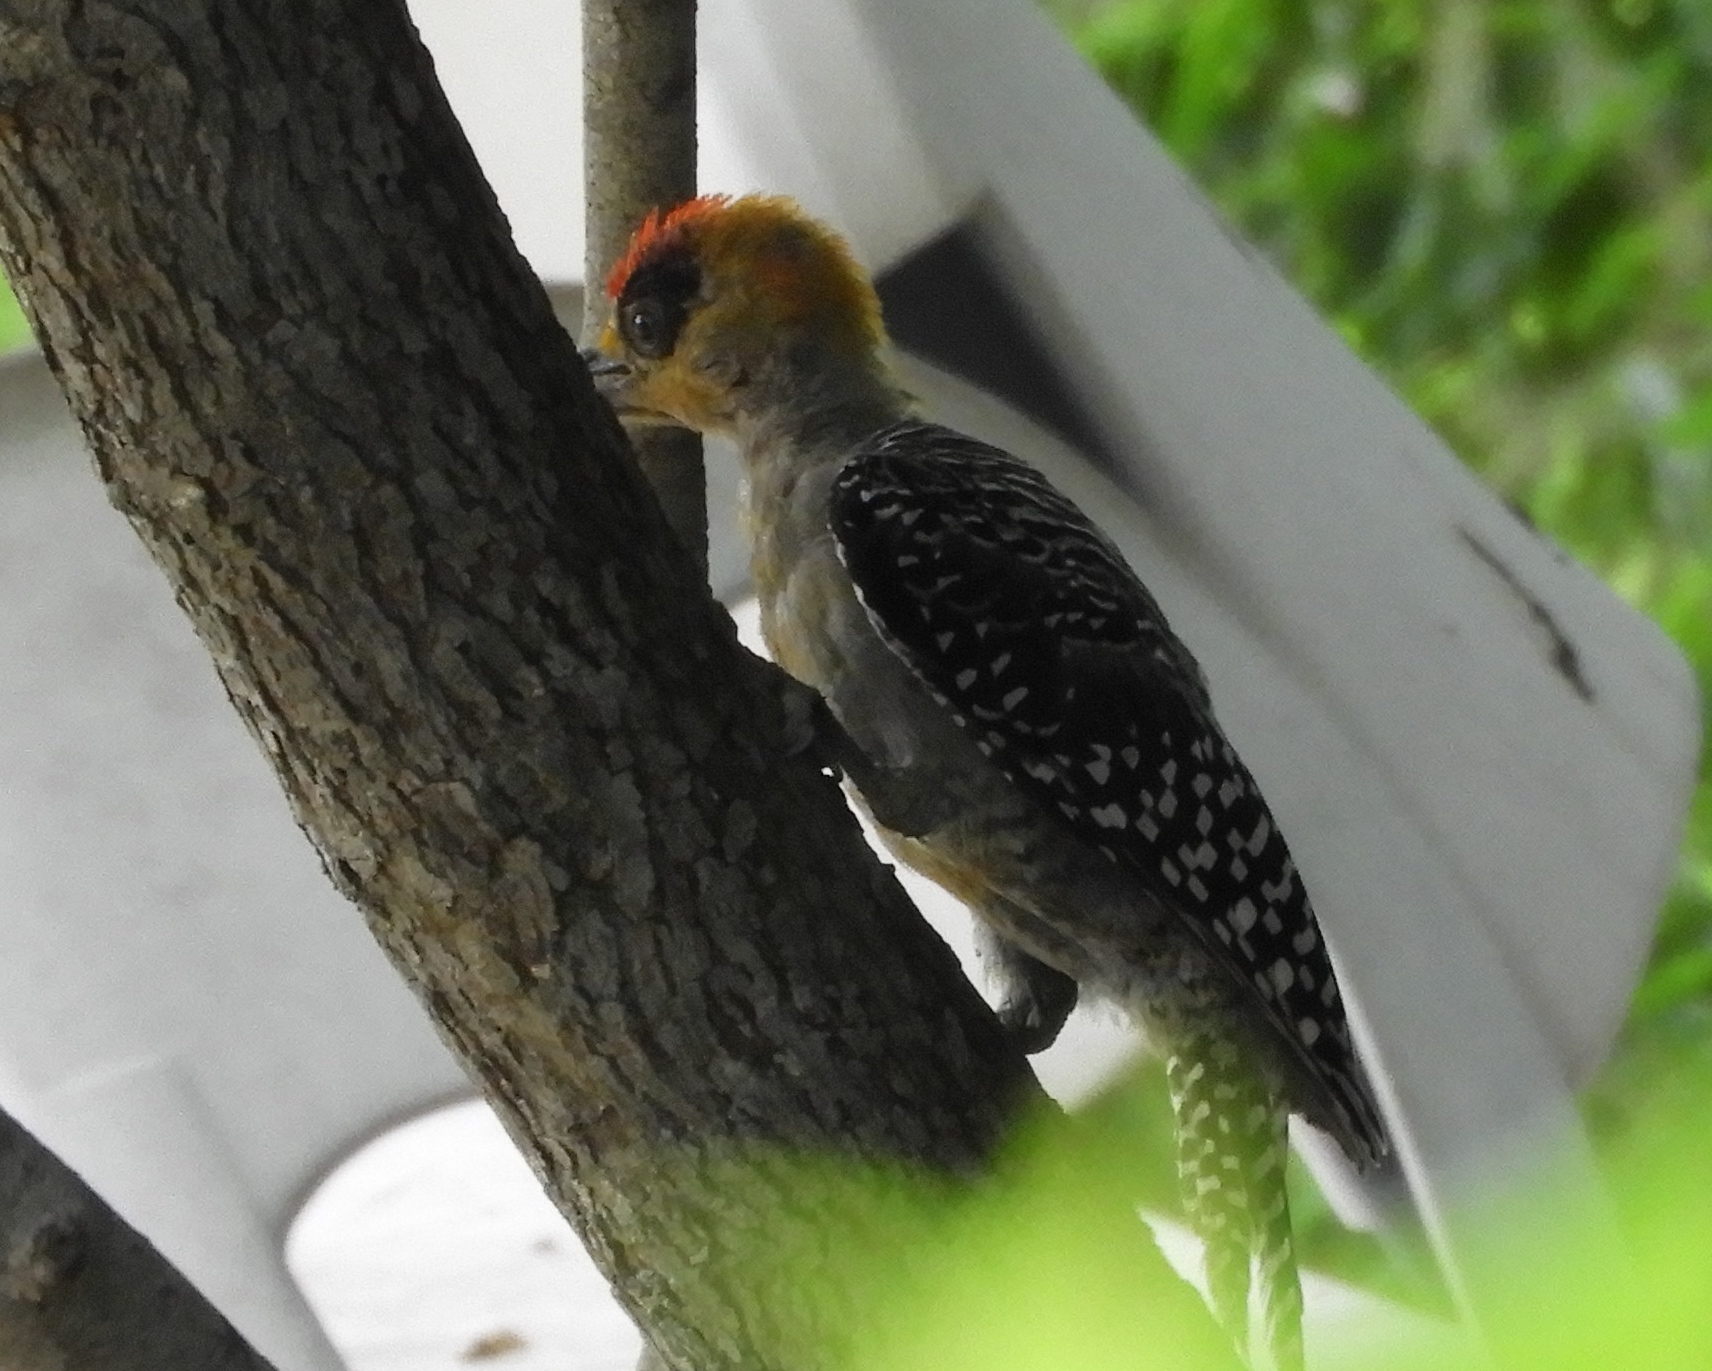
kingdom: Animalia
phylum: Chordata
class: Aves
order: Piciformes
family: Picidae
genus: Melanerpes
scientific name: Melanerpes chrysogenys
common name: Golden-cheeked woodpecker
